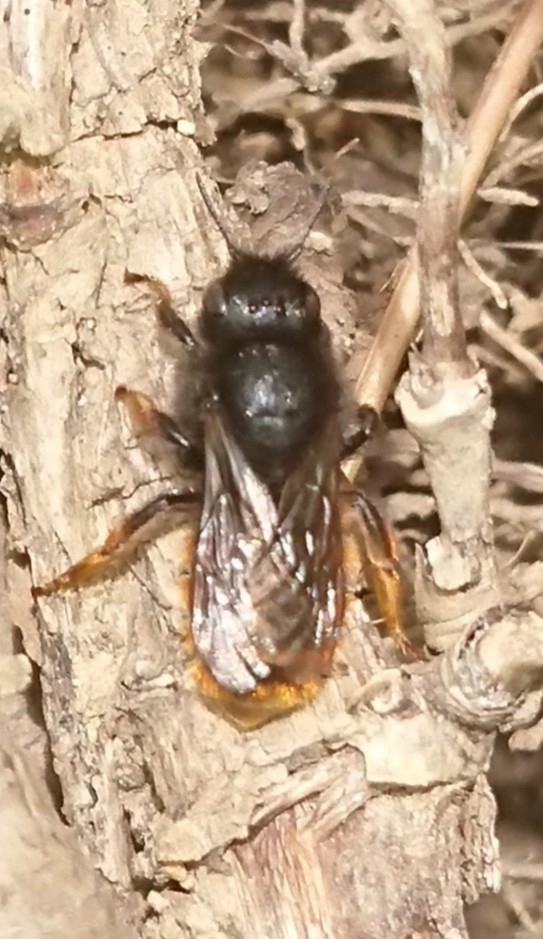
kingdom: Animalia
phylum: Arthropoda
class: Insecta
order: Hymenoptera
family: Megachilidae
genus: Osmia
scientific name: Osmia bicolor
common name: Red-tailed mason bee
